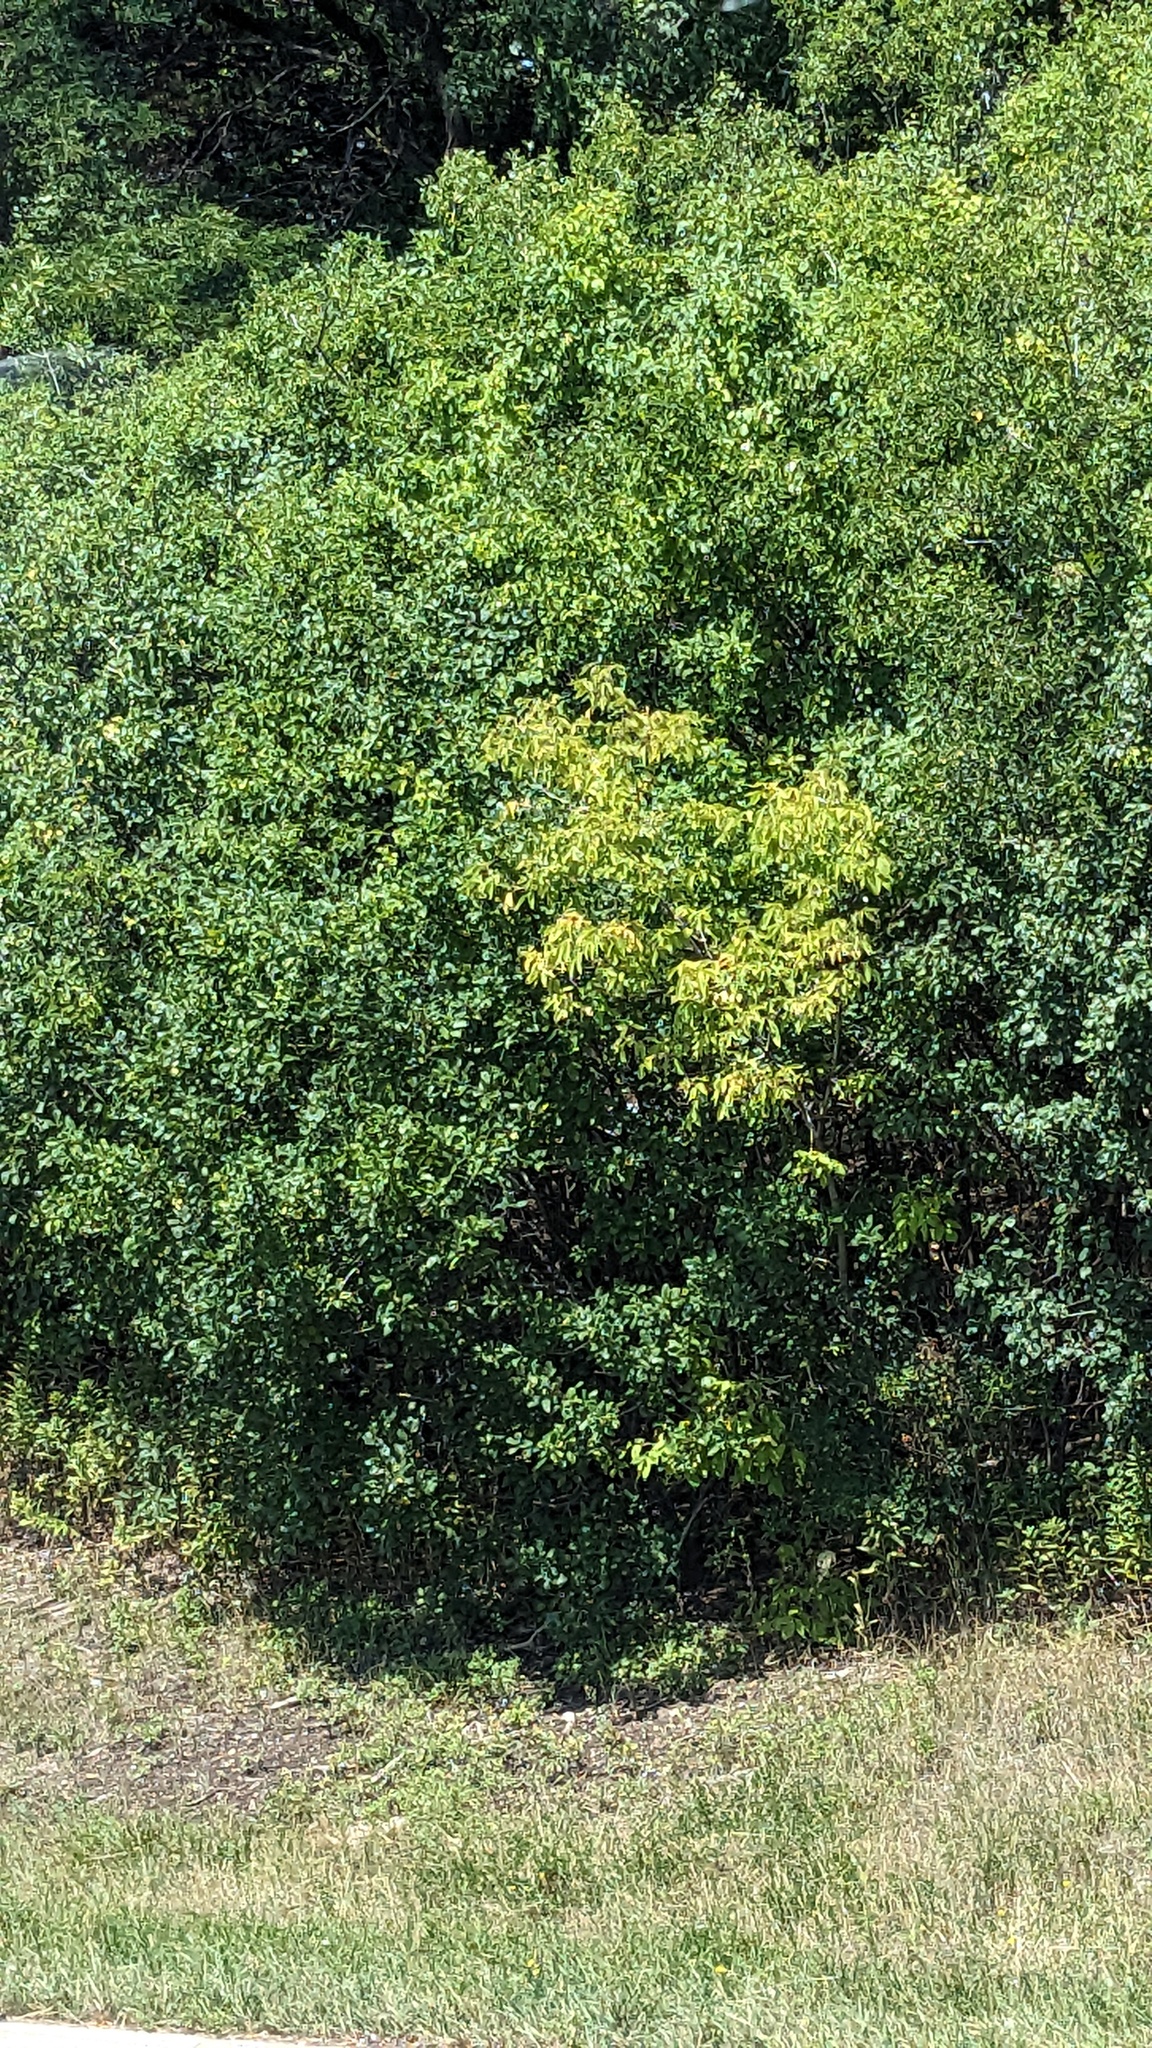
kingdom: Plantae
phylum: Tracheophyta
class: Magnoliopsida
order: Sapindales
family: Sapindaceae
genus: Acer
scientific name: Acer negundo
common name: Ashleaf maple
